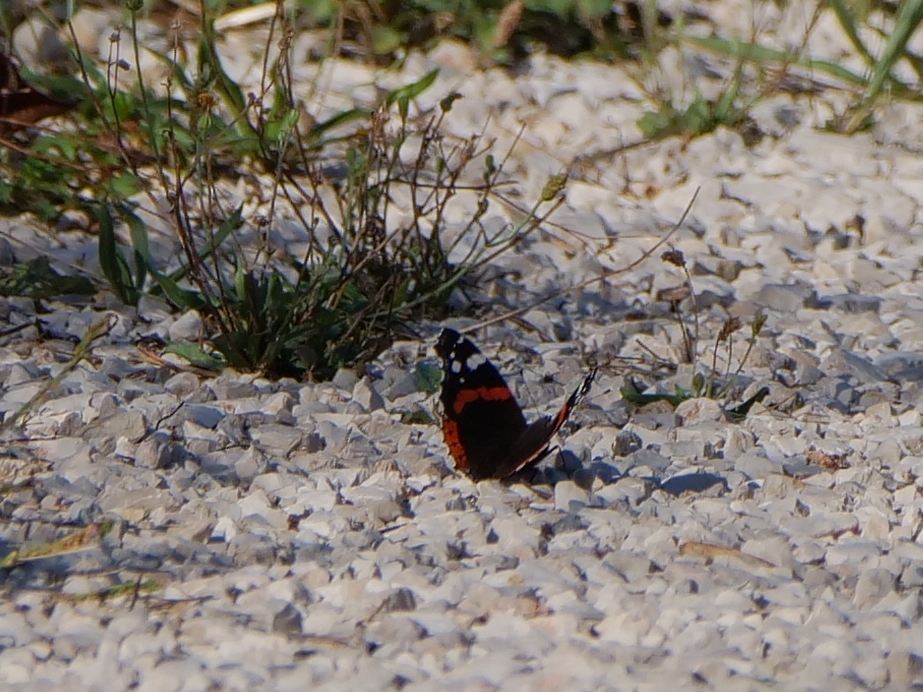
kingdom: Animalia
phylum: Arthropoda
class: Insecta
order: Lepidoptera
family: Nymphalidae
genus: Vanessa
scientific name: Vanessa atalanta
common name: Red admiral
